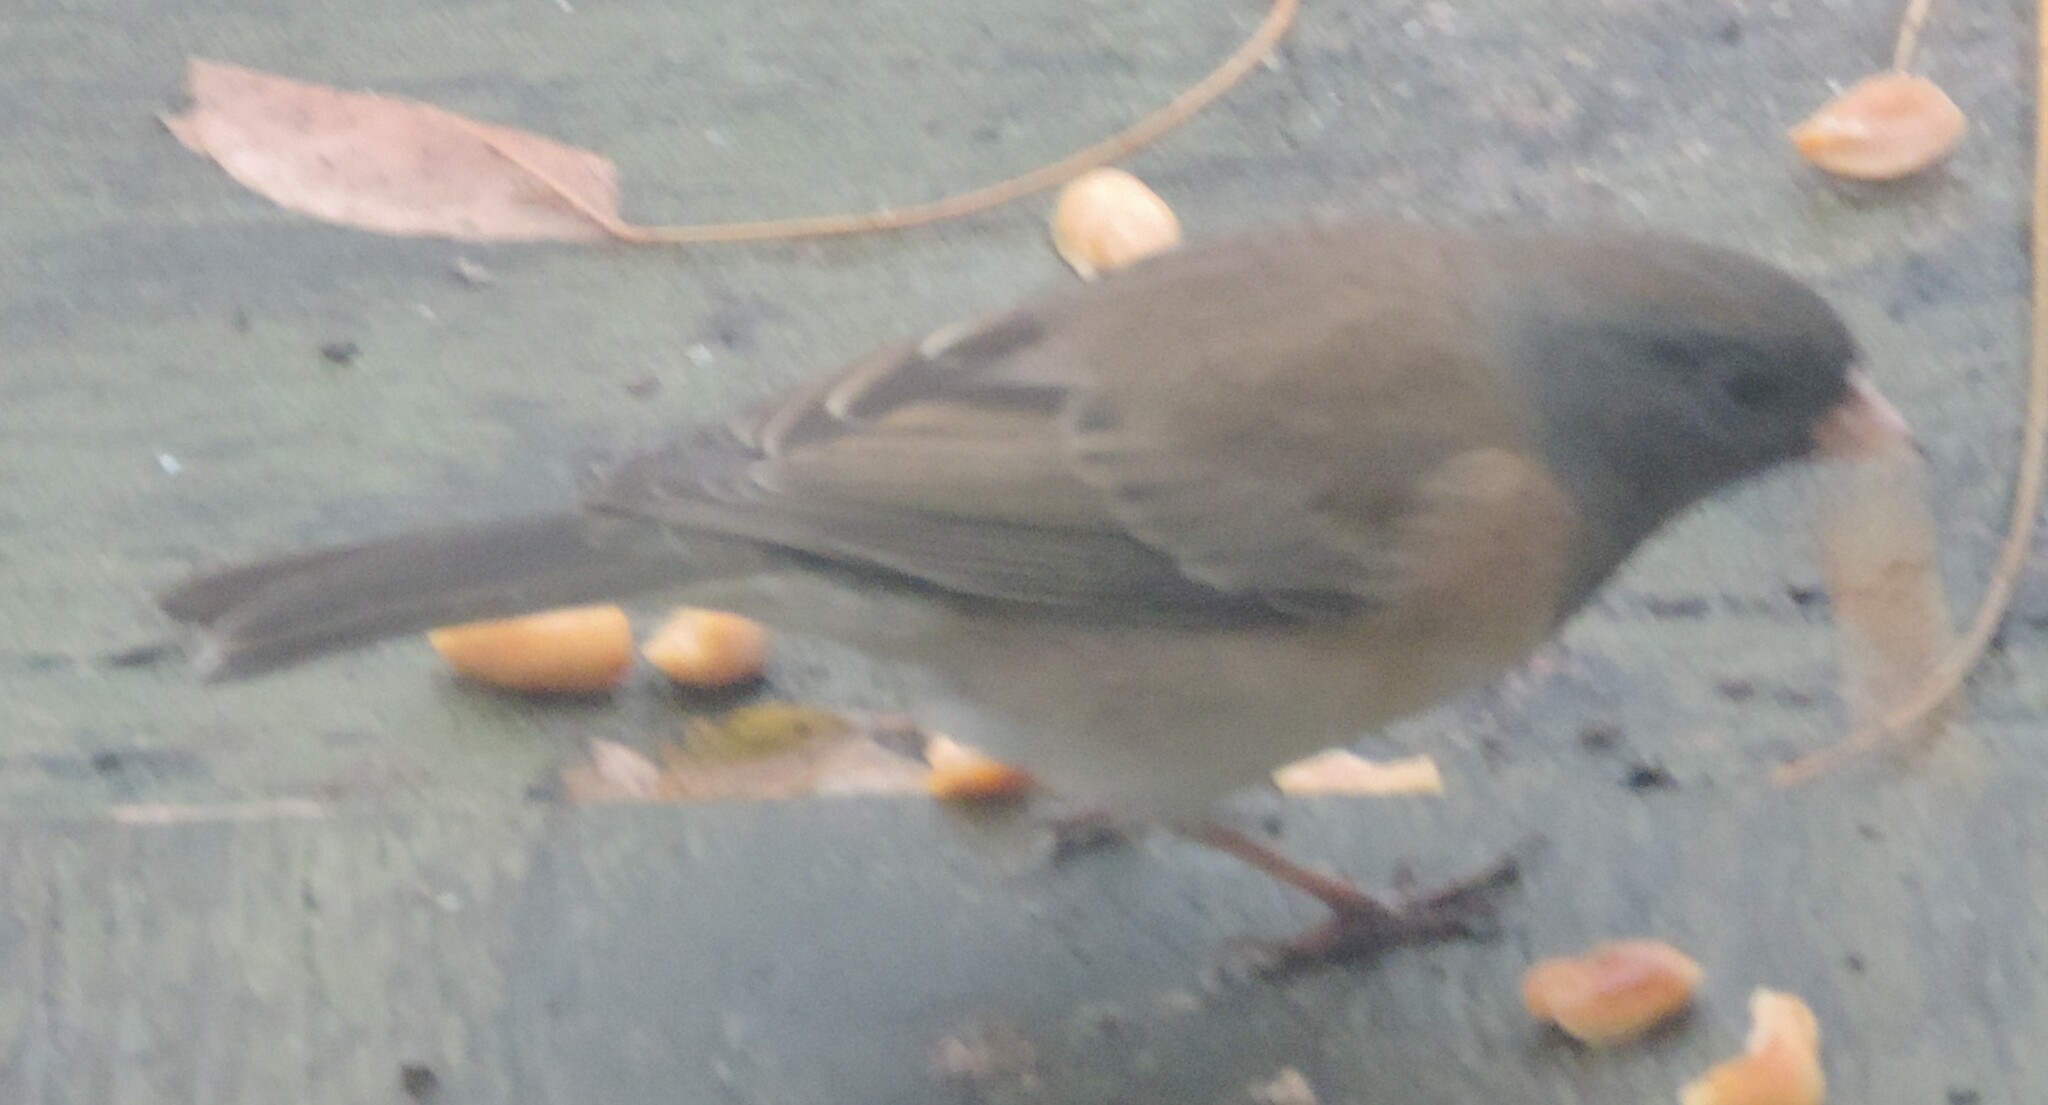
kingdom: Animalia
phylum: Chordata
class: Aves
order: Passeriformes
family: Passerellidae
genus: Junco
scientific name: Junco hyemalis
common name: Dark-eyed junco
